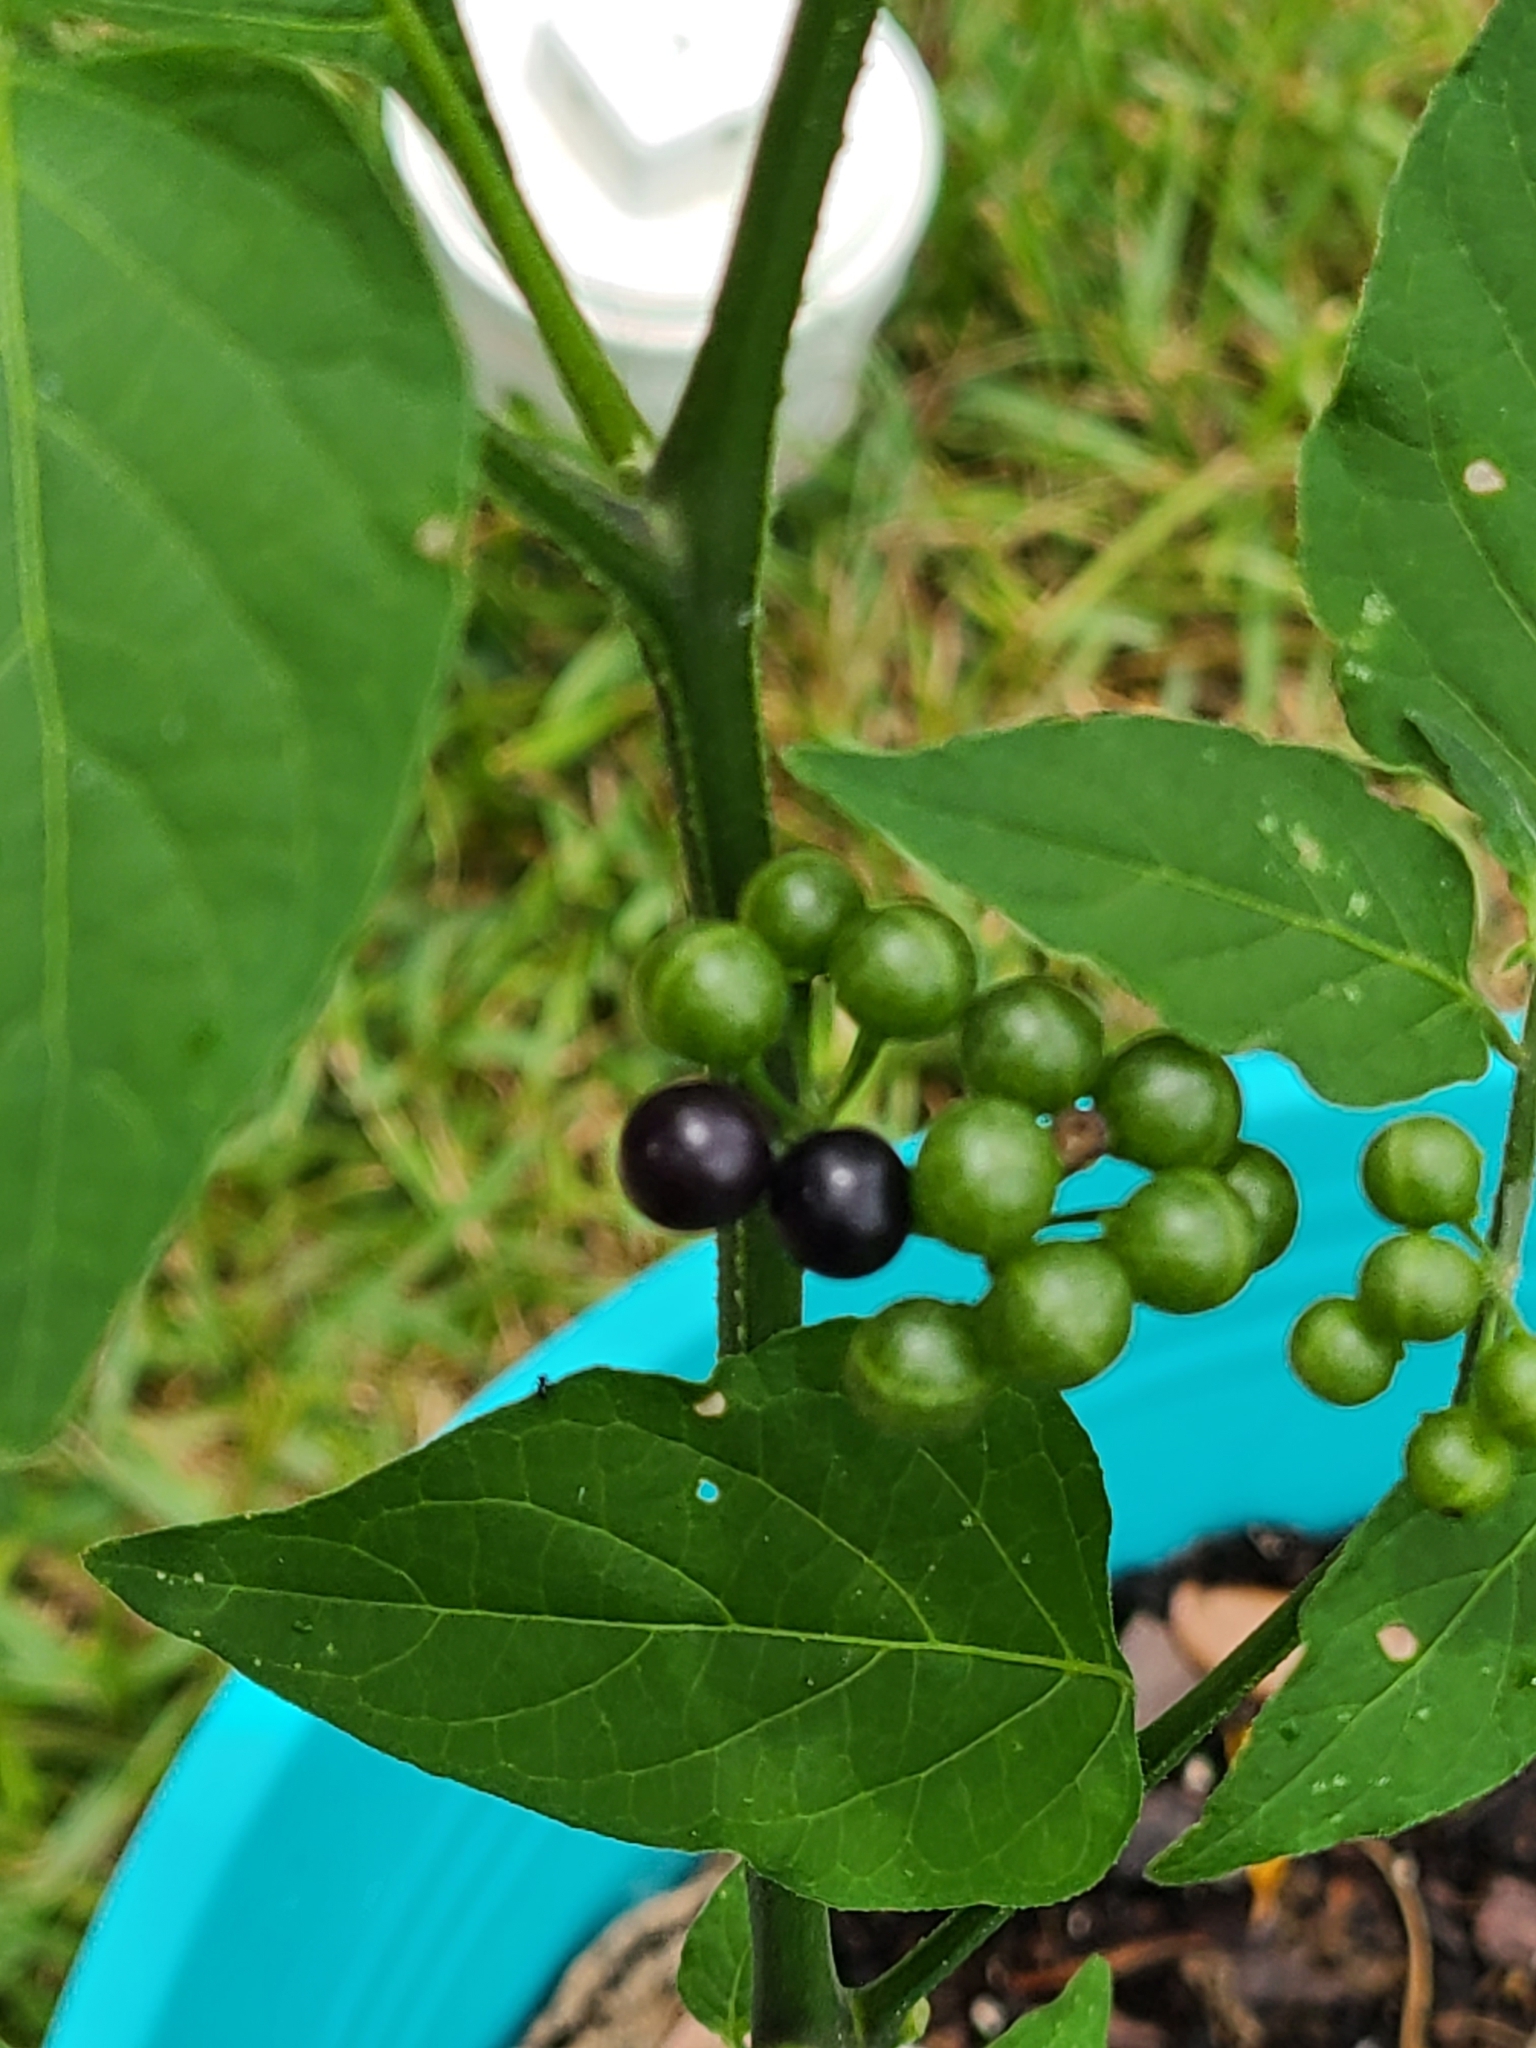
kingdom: Plantae
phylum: Tracheophyta
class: Magnoliopsida
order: Solanales
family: Solanaceae
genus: Solanum
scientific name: Solanum americanum
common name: American black nightshade
